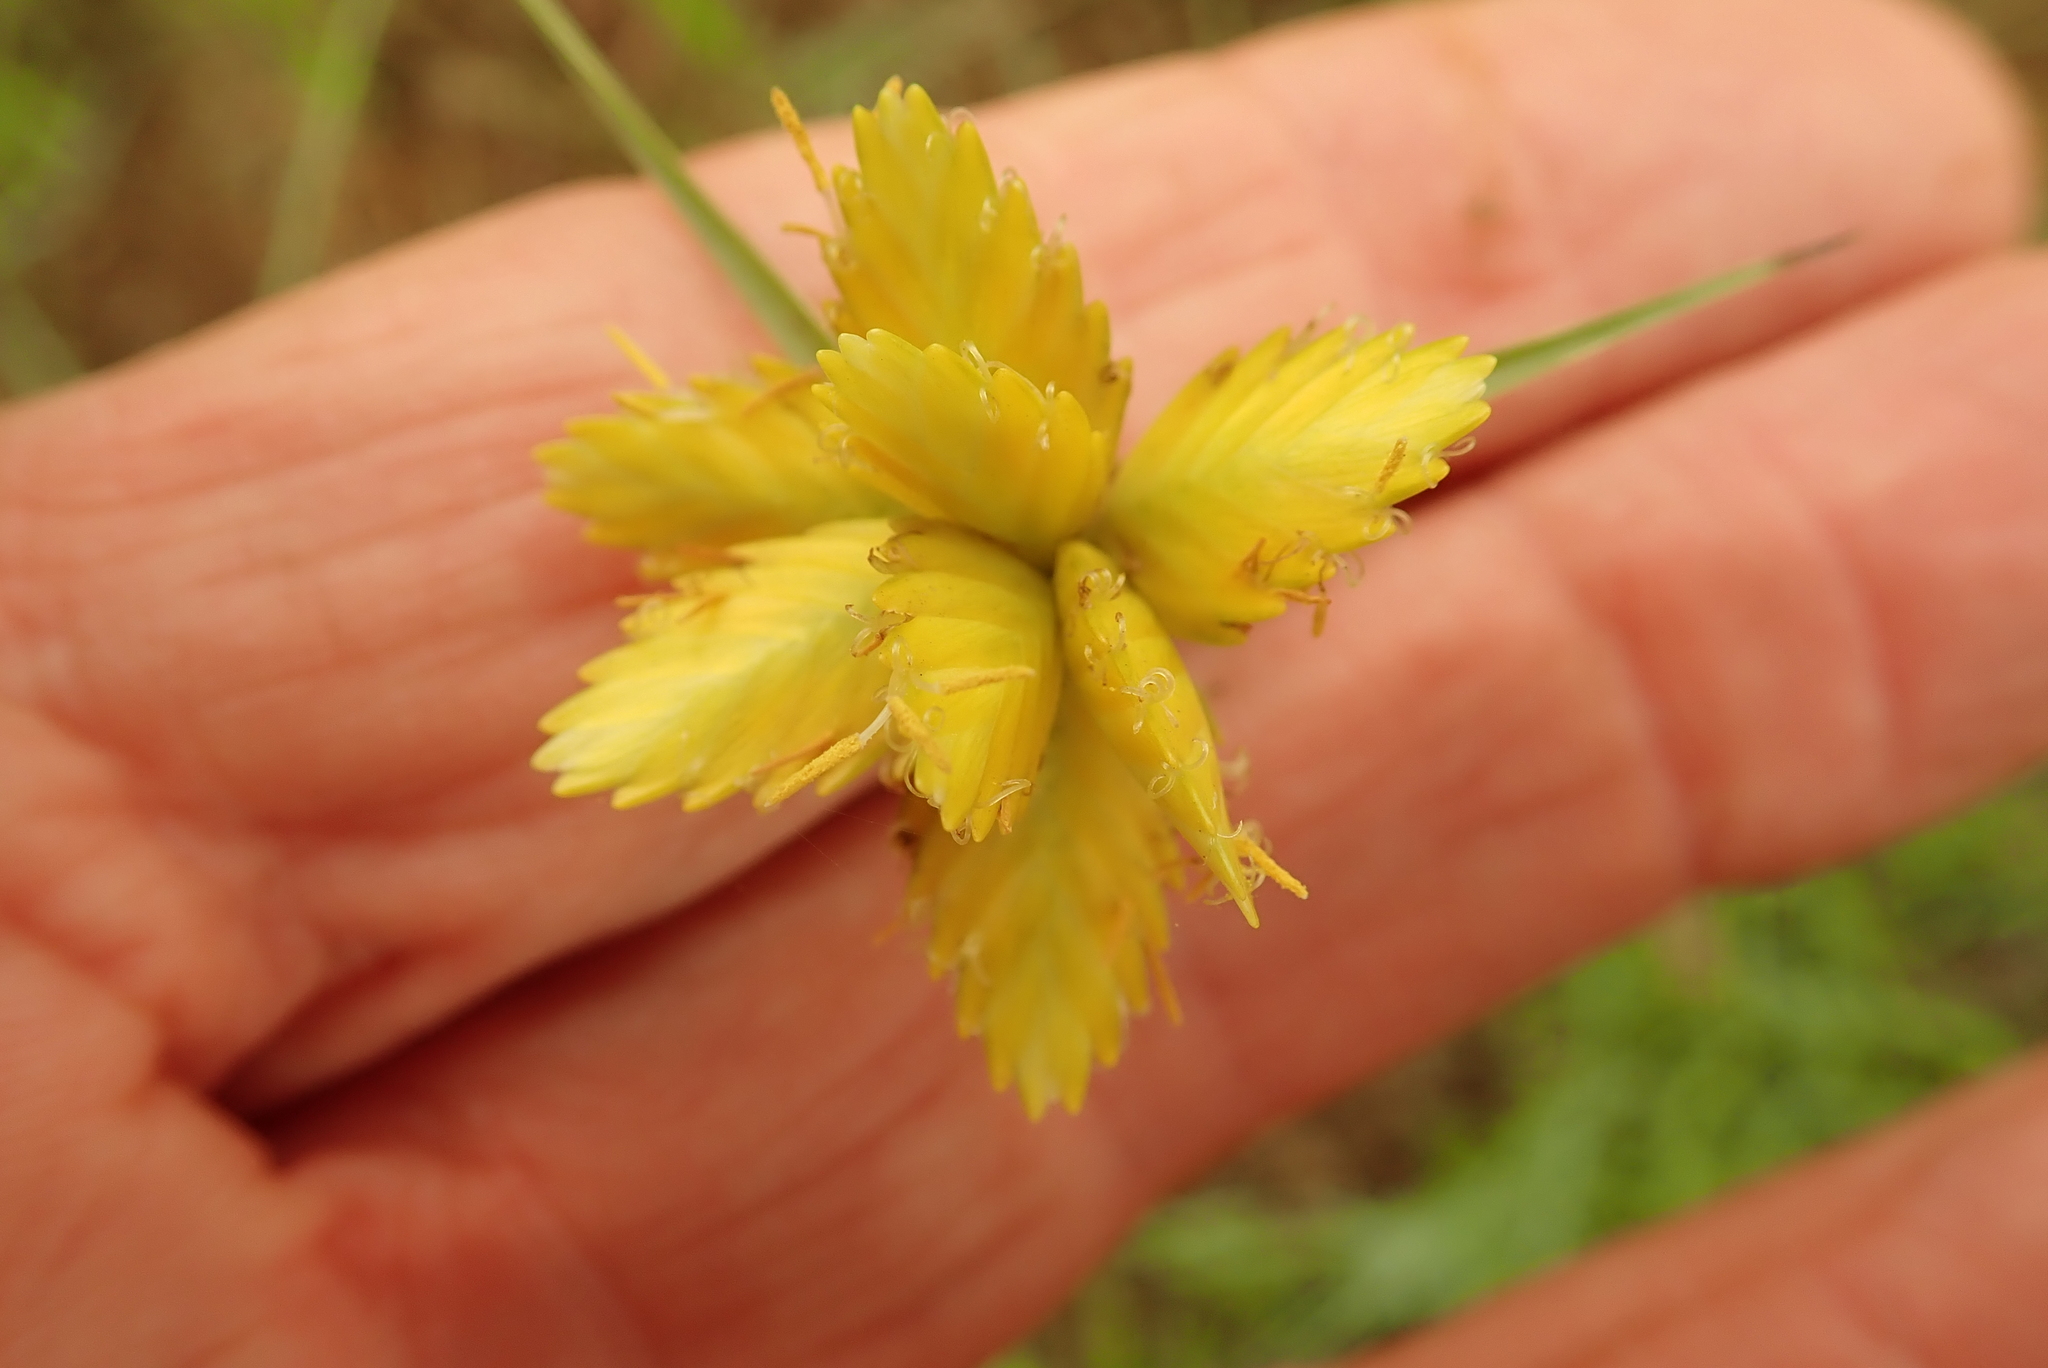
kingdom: Plantae
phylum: Tracheophyta
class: Liliopsida
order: Poales
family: Cyperaceae
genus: Cyperus
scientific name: Cyperus sphaerocephalus
